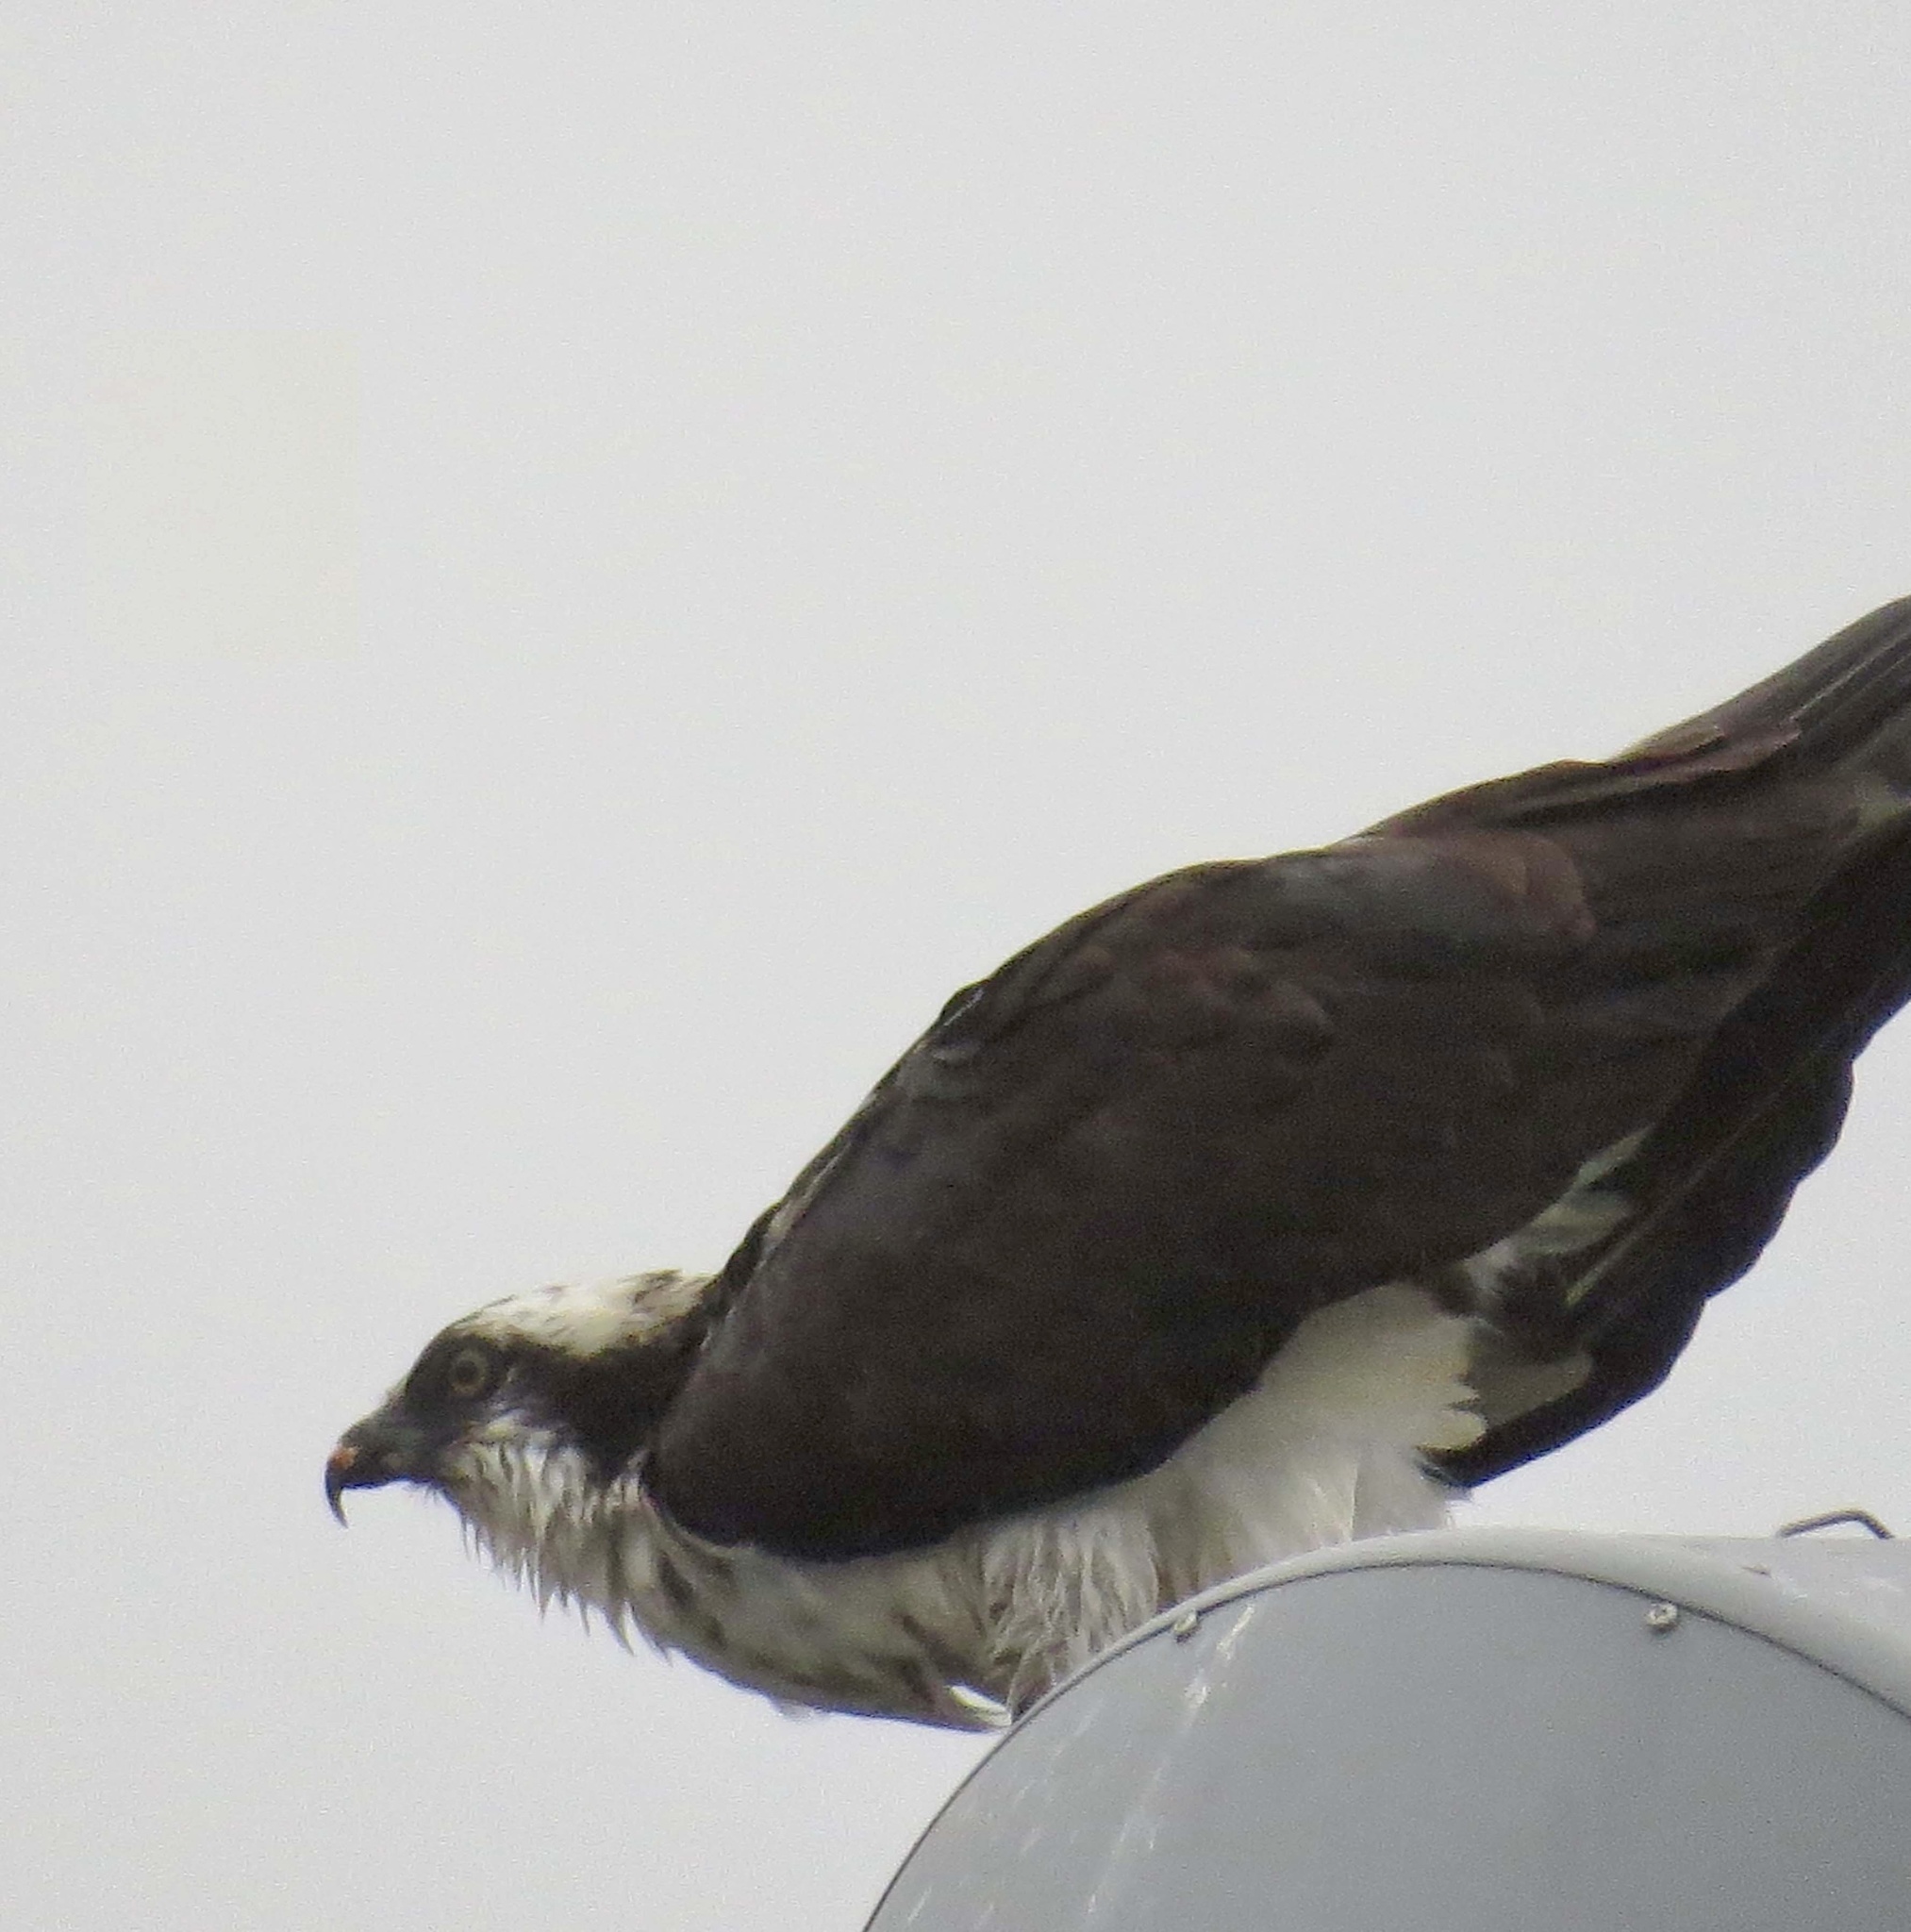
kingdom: Animalia
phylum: Chordata
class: Aves
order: Accipitriformes
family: Pandionidae
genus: Pandion
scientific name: Pandion haliaetus
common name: Osprey
